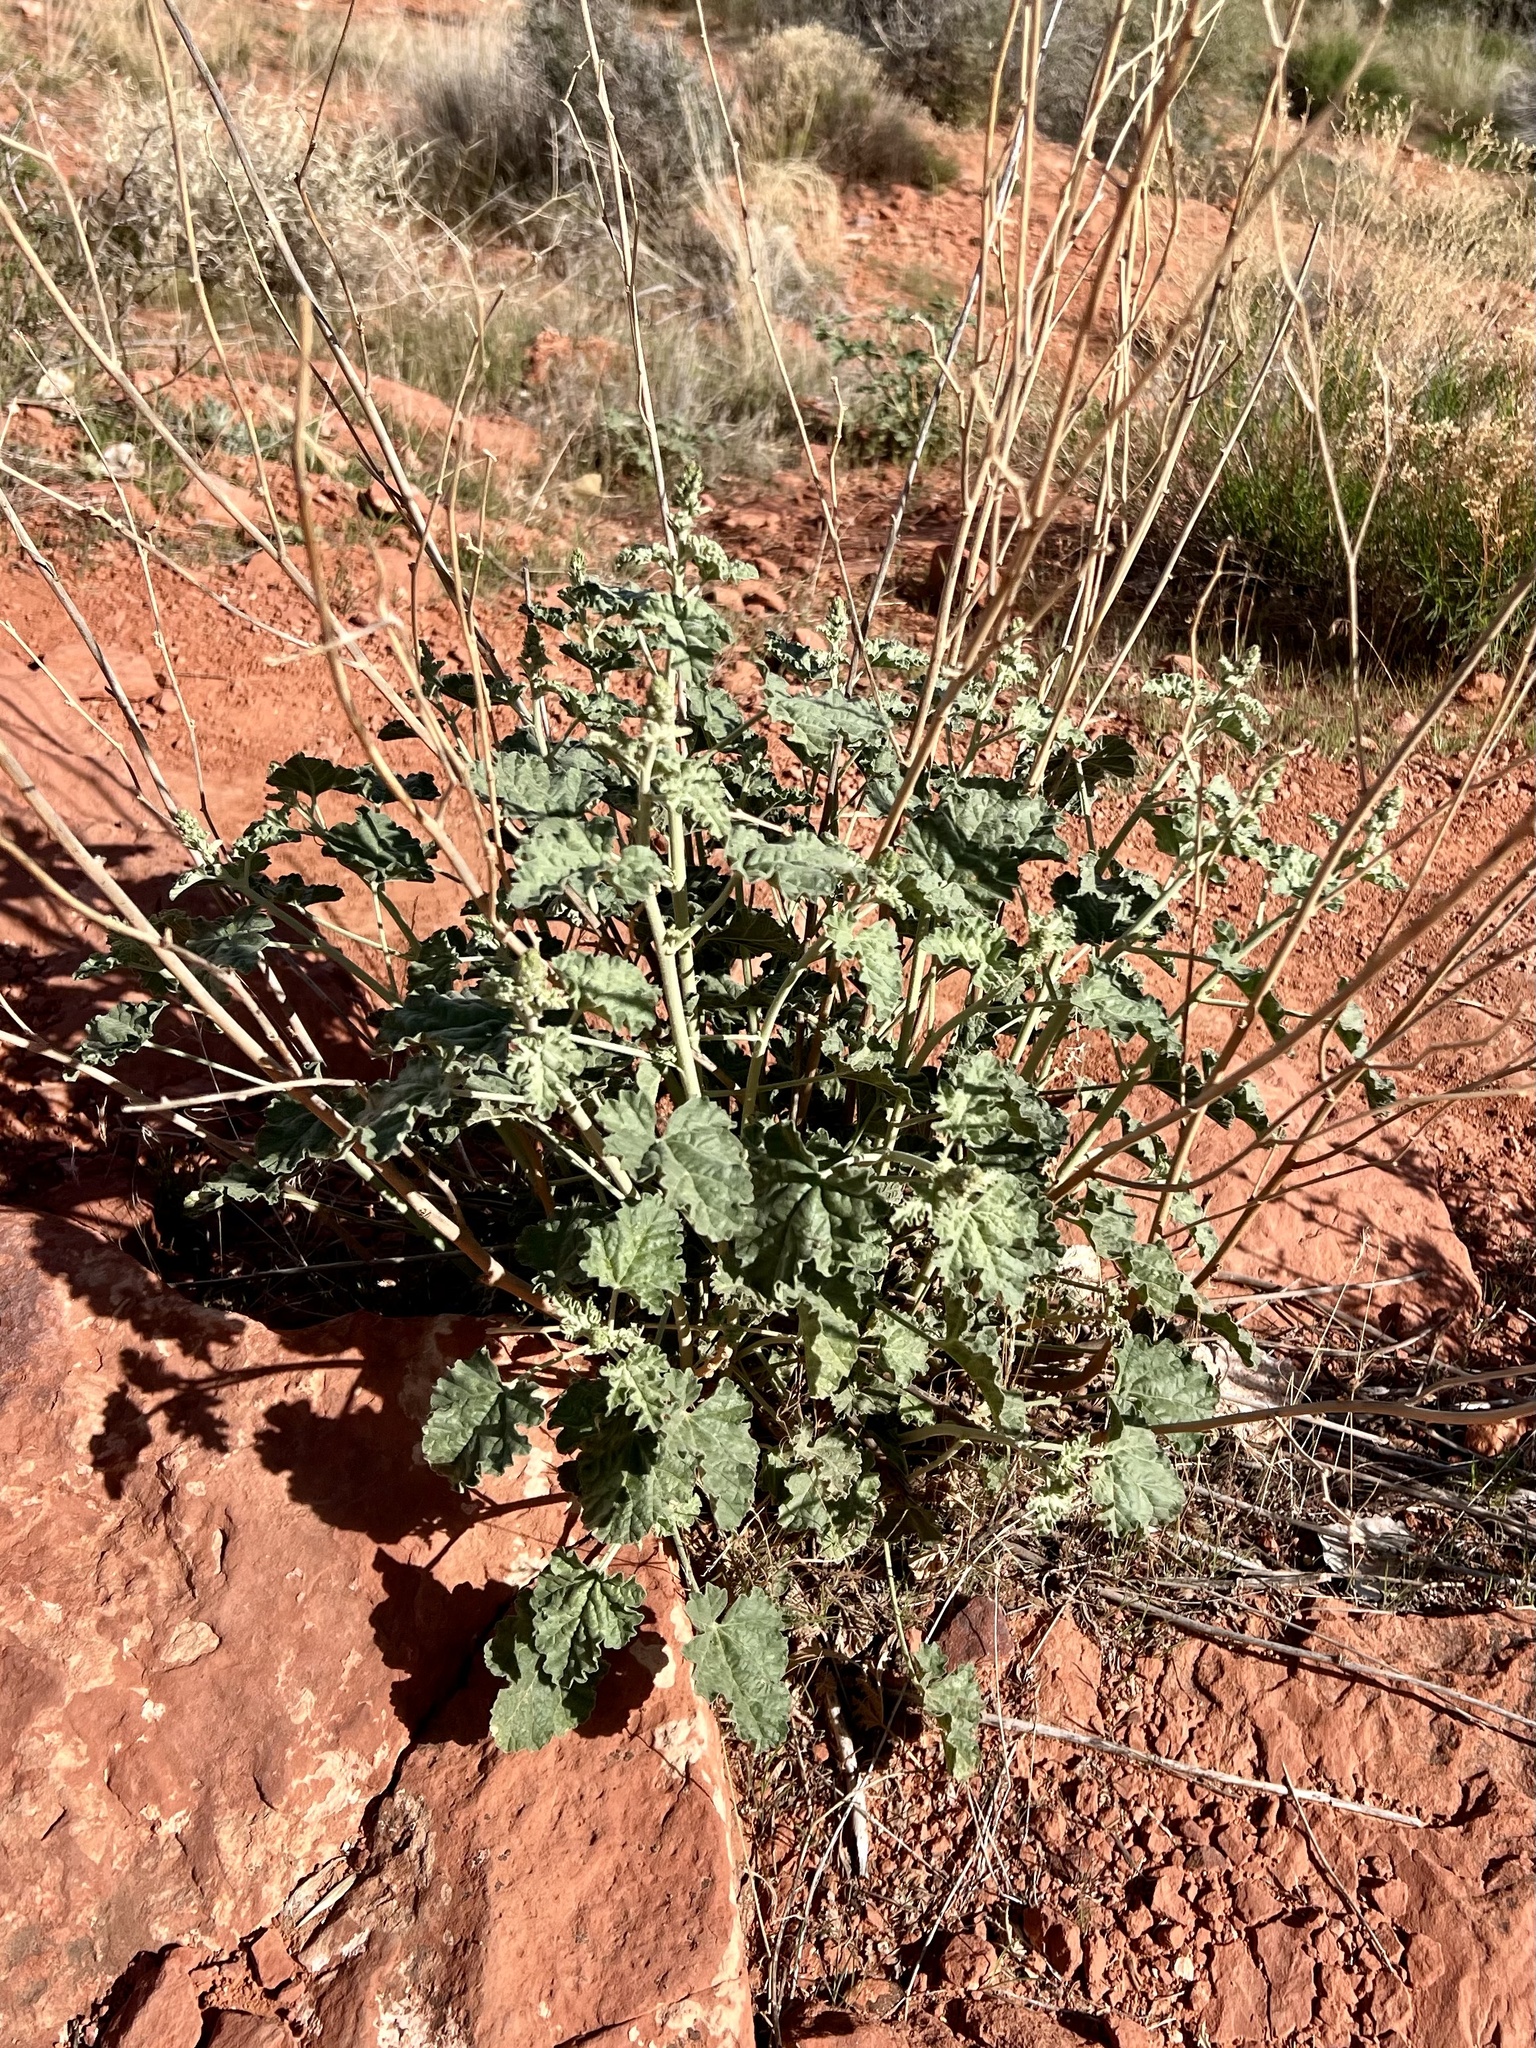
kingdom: Plantae
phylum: Tracheophyta
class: Magnoliopsida
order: Malvales
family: Malvaceae
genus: Sphaeralcea
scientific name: Sphaeralcea ambigua
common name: Apricot globe-mallow
